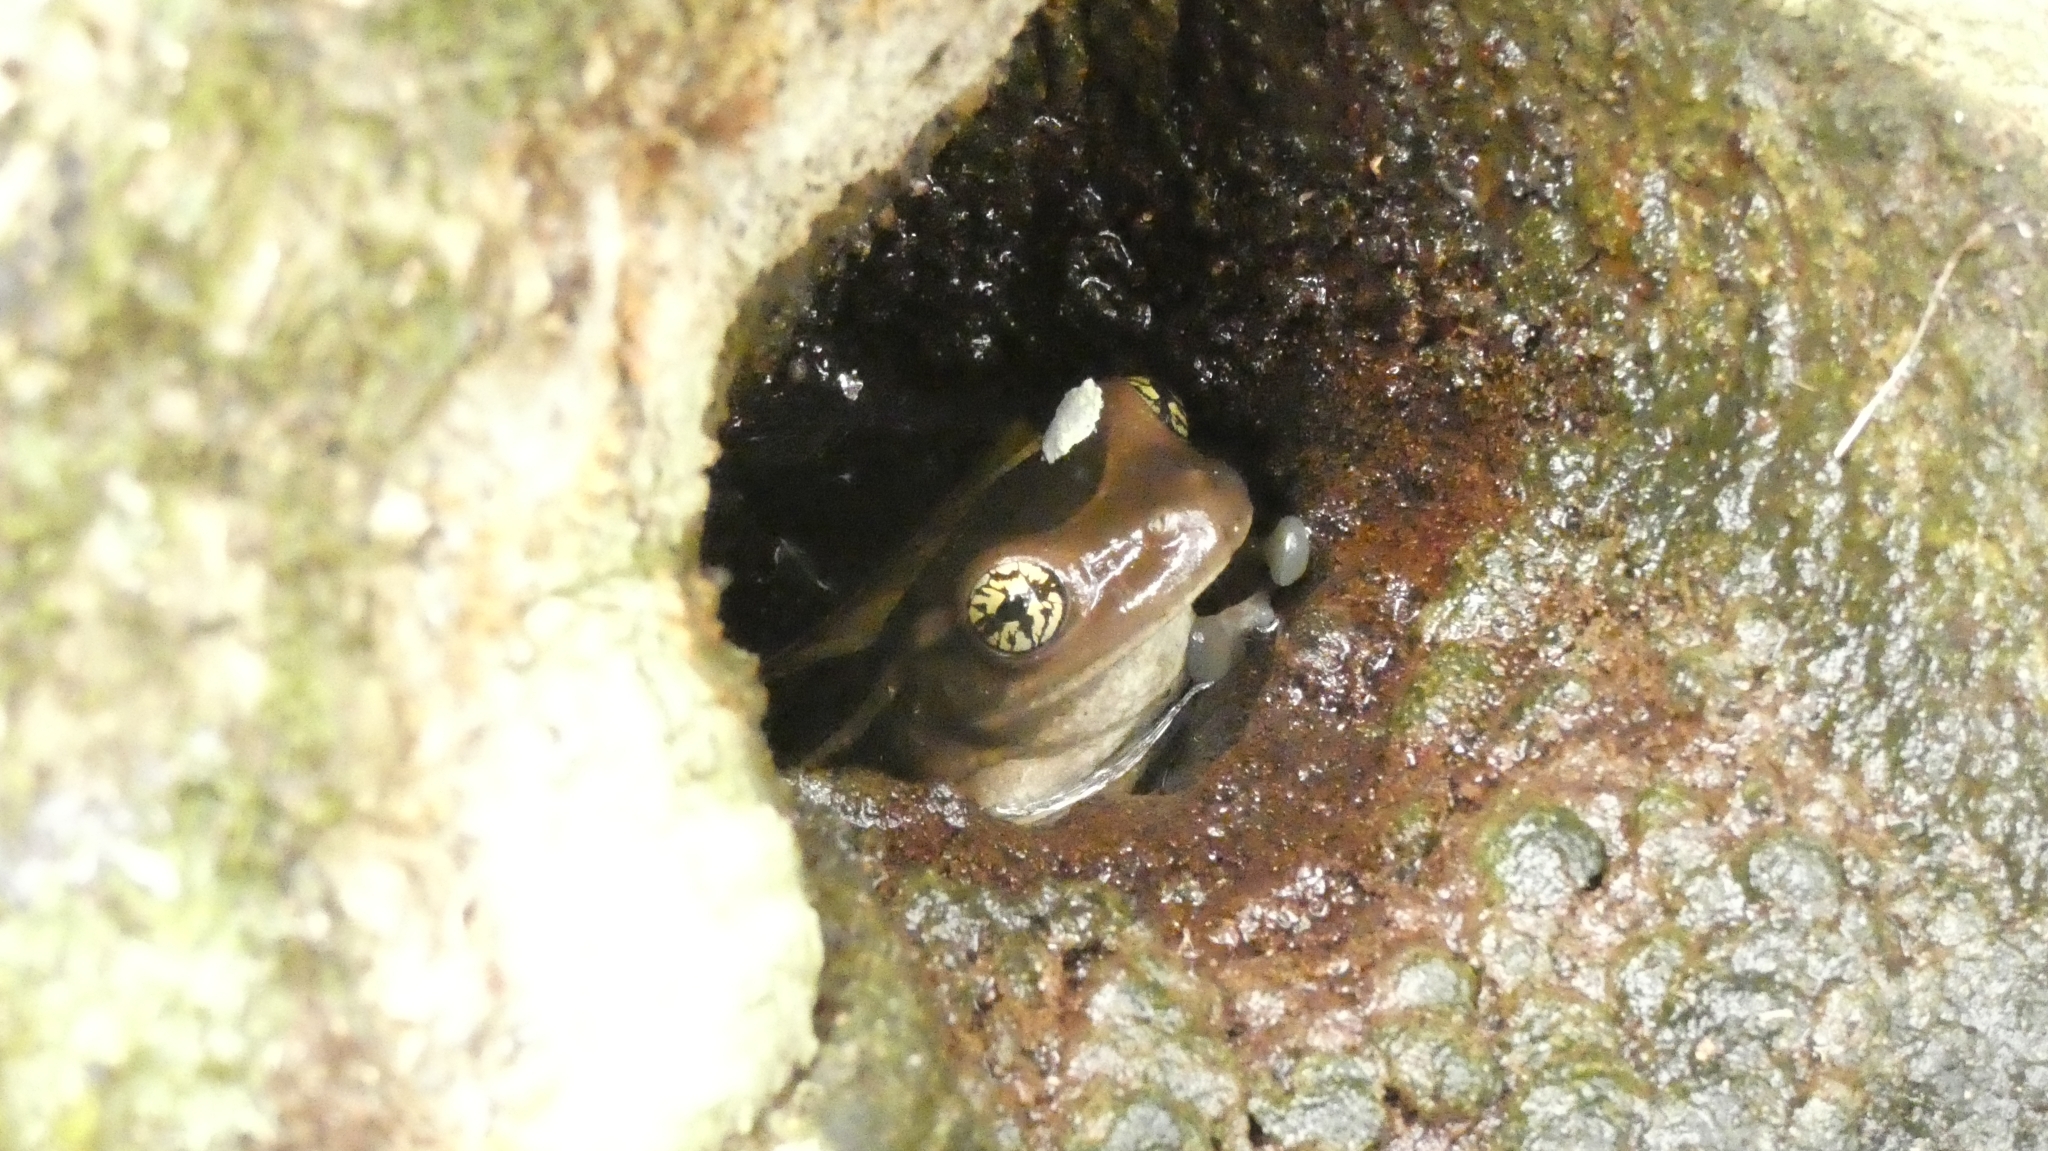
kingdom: Animalia
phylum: Chordata
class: Amphibia
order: Anura
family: Hylidae
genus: Trachycephalus
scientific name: Trachycephalus mesophaeus
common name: Porto alegre golden-eyed treefrog
